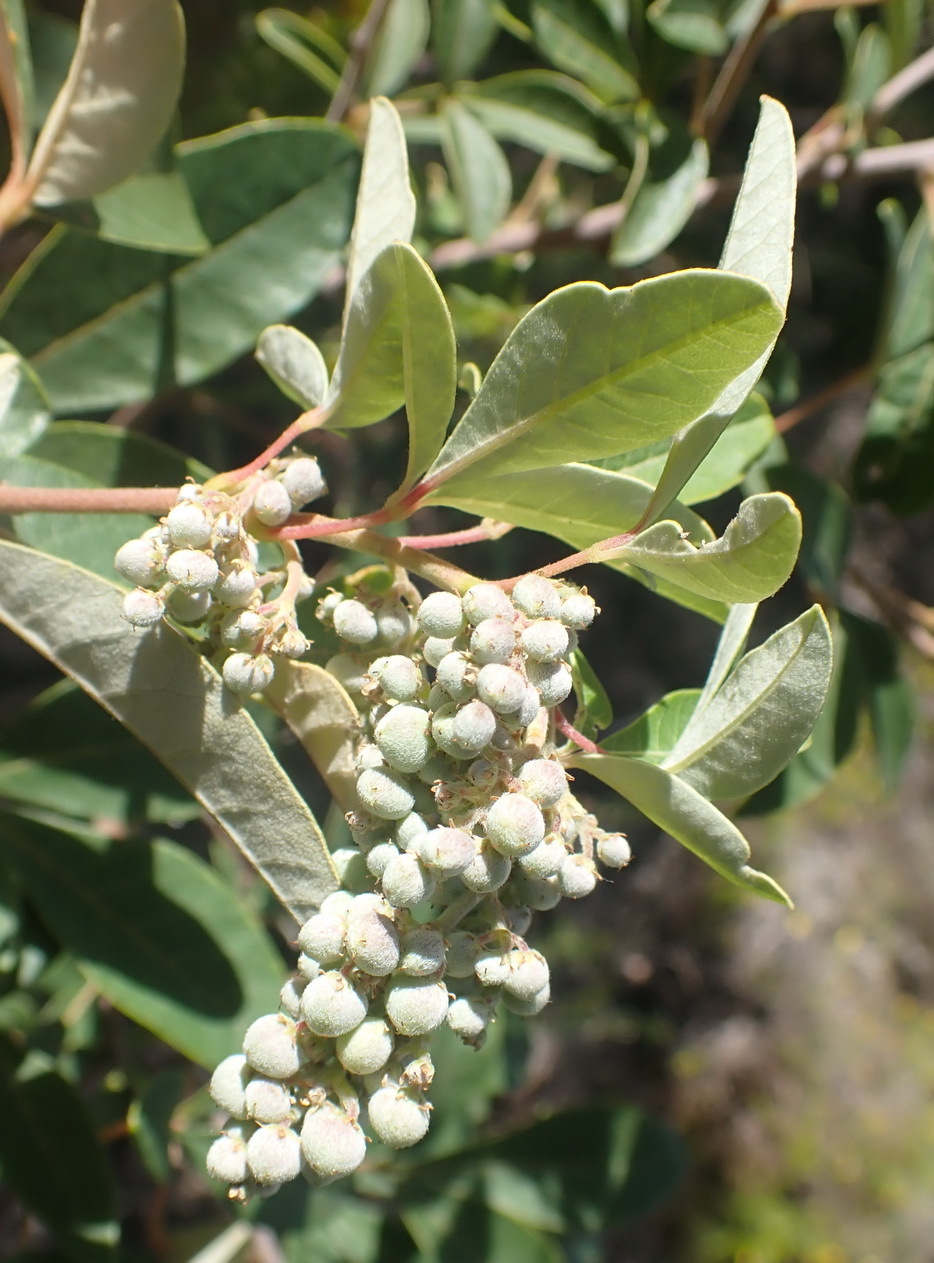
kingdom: Plantae
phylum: Tracheophyta
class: Magnoliopsida
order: Sapindales
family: Anacardiaceae
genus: Searsia
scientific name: Searsia tomentosa
